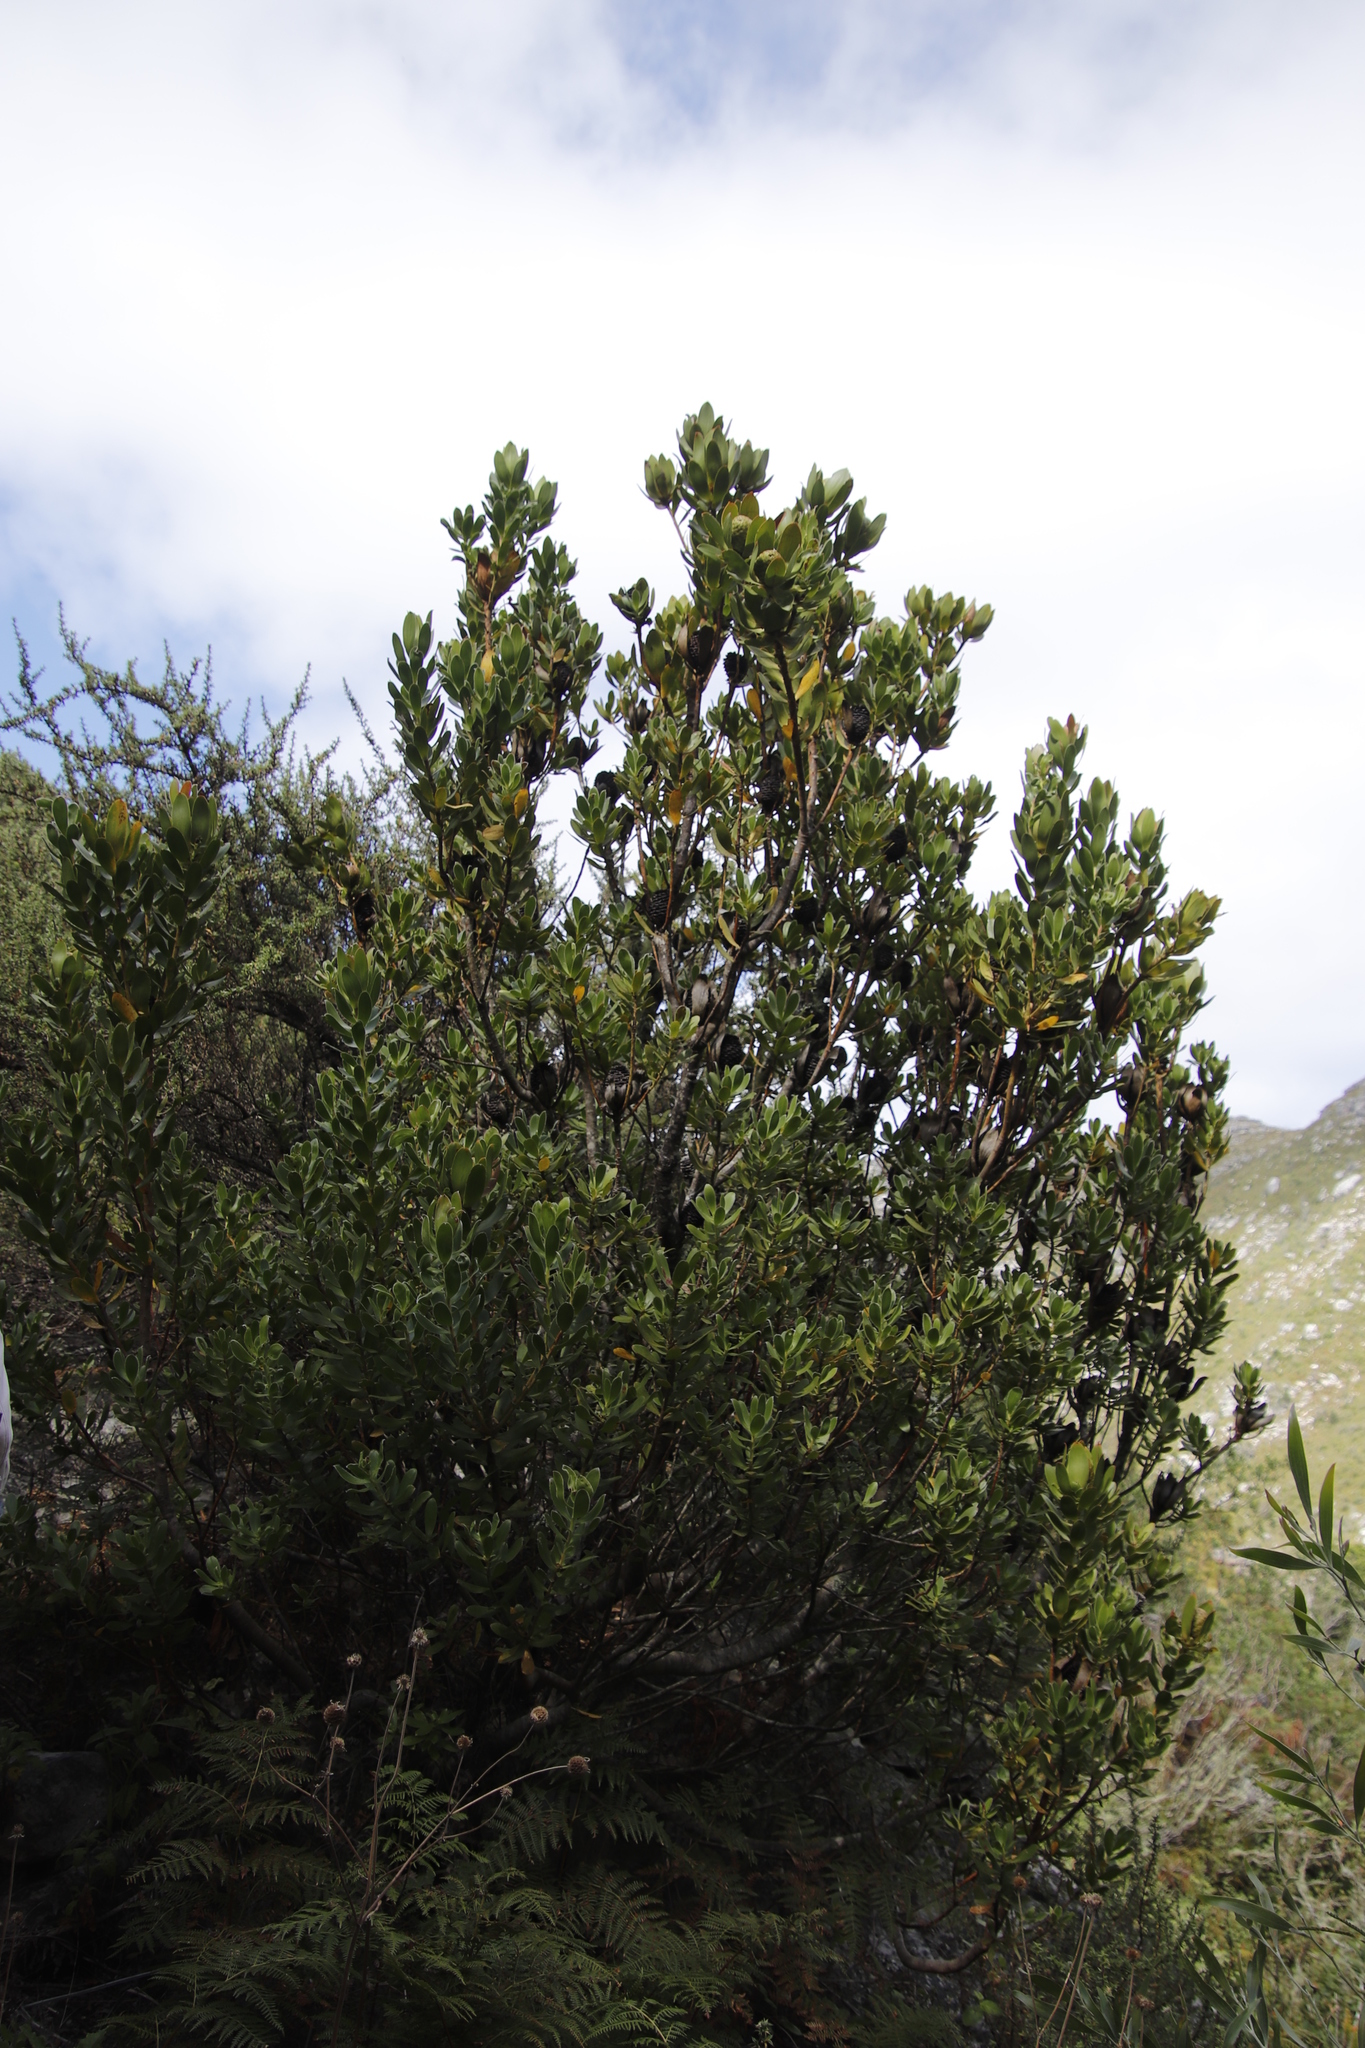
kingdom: Plantae
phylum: Tracheophyta
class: Magnoliopsida
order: Proteales
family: Proteaceae
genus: Leucadendron
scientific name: Leucadendron strobilinum
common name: Mountain rose
